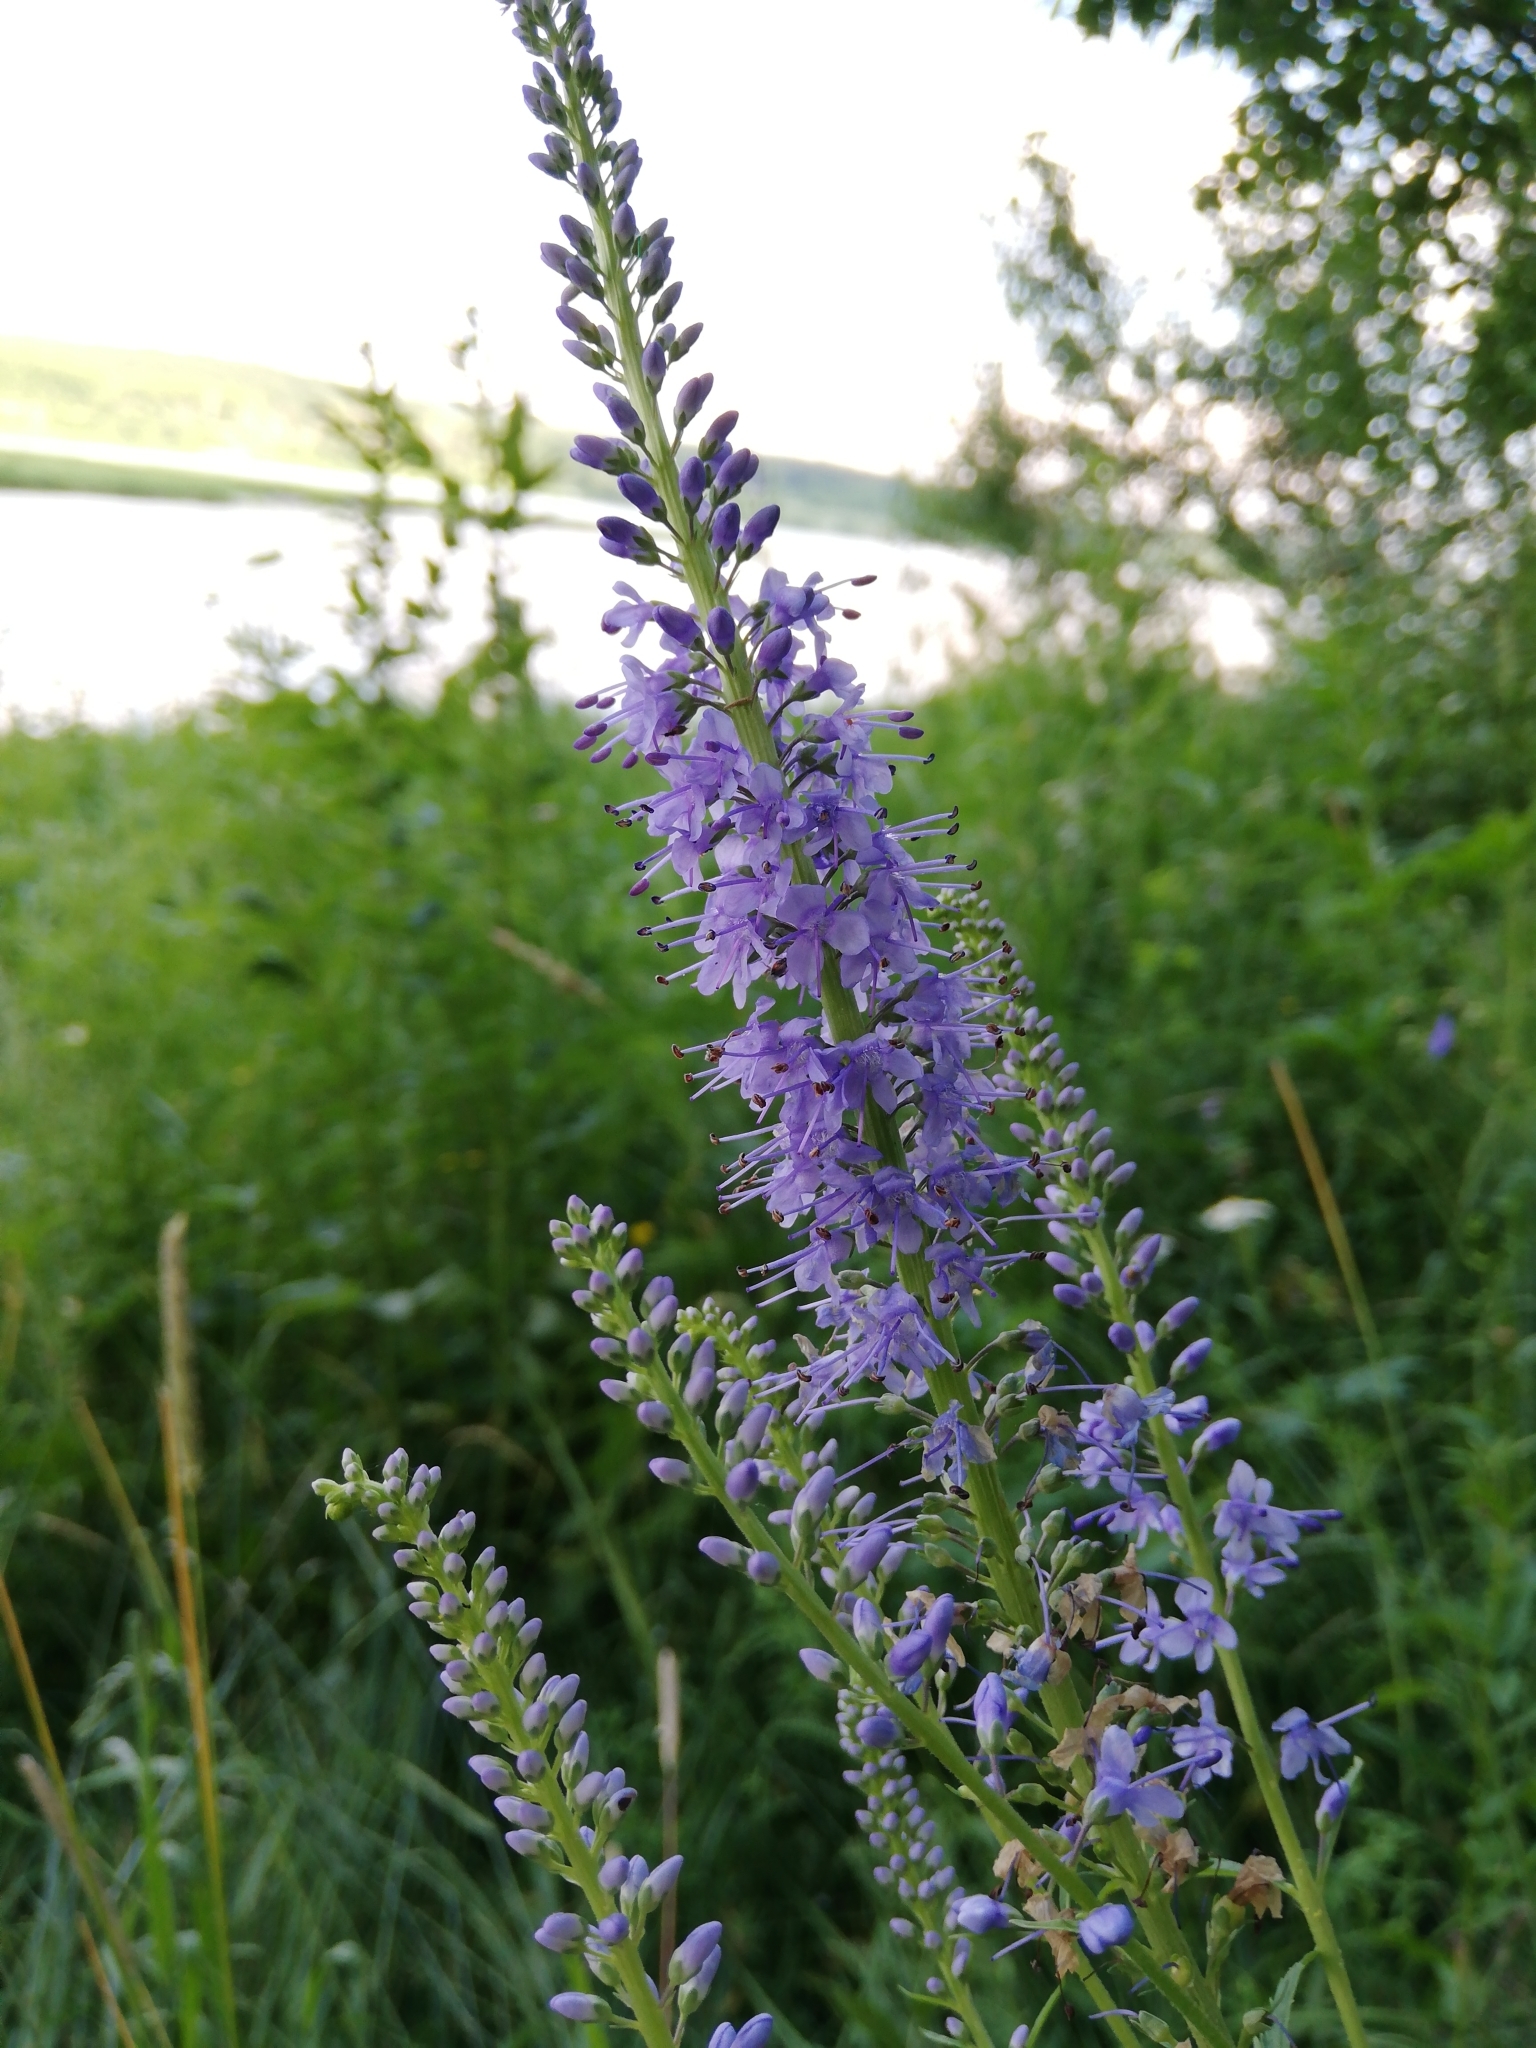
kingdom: Plantae
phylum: Tracheophyta
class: Magnoliopsida
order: Lamiales
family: Plantaginaceae
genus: Veronica
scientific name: Veronica longifolia
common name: Garden speedwell
